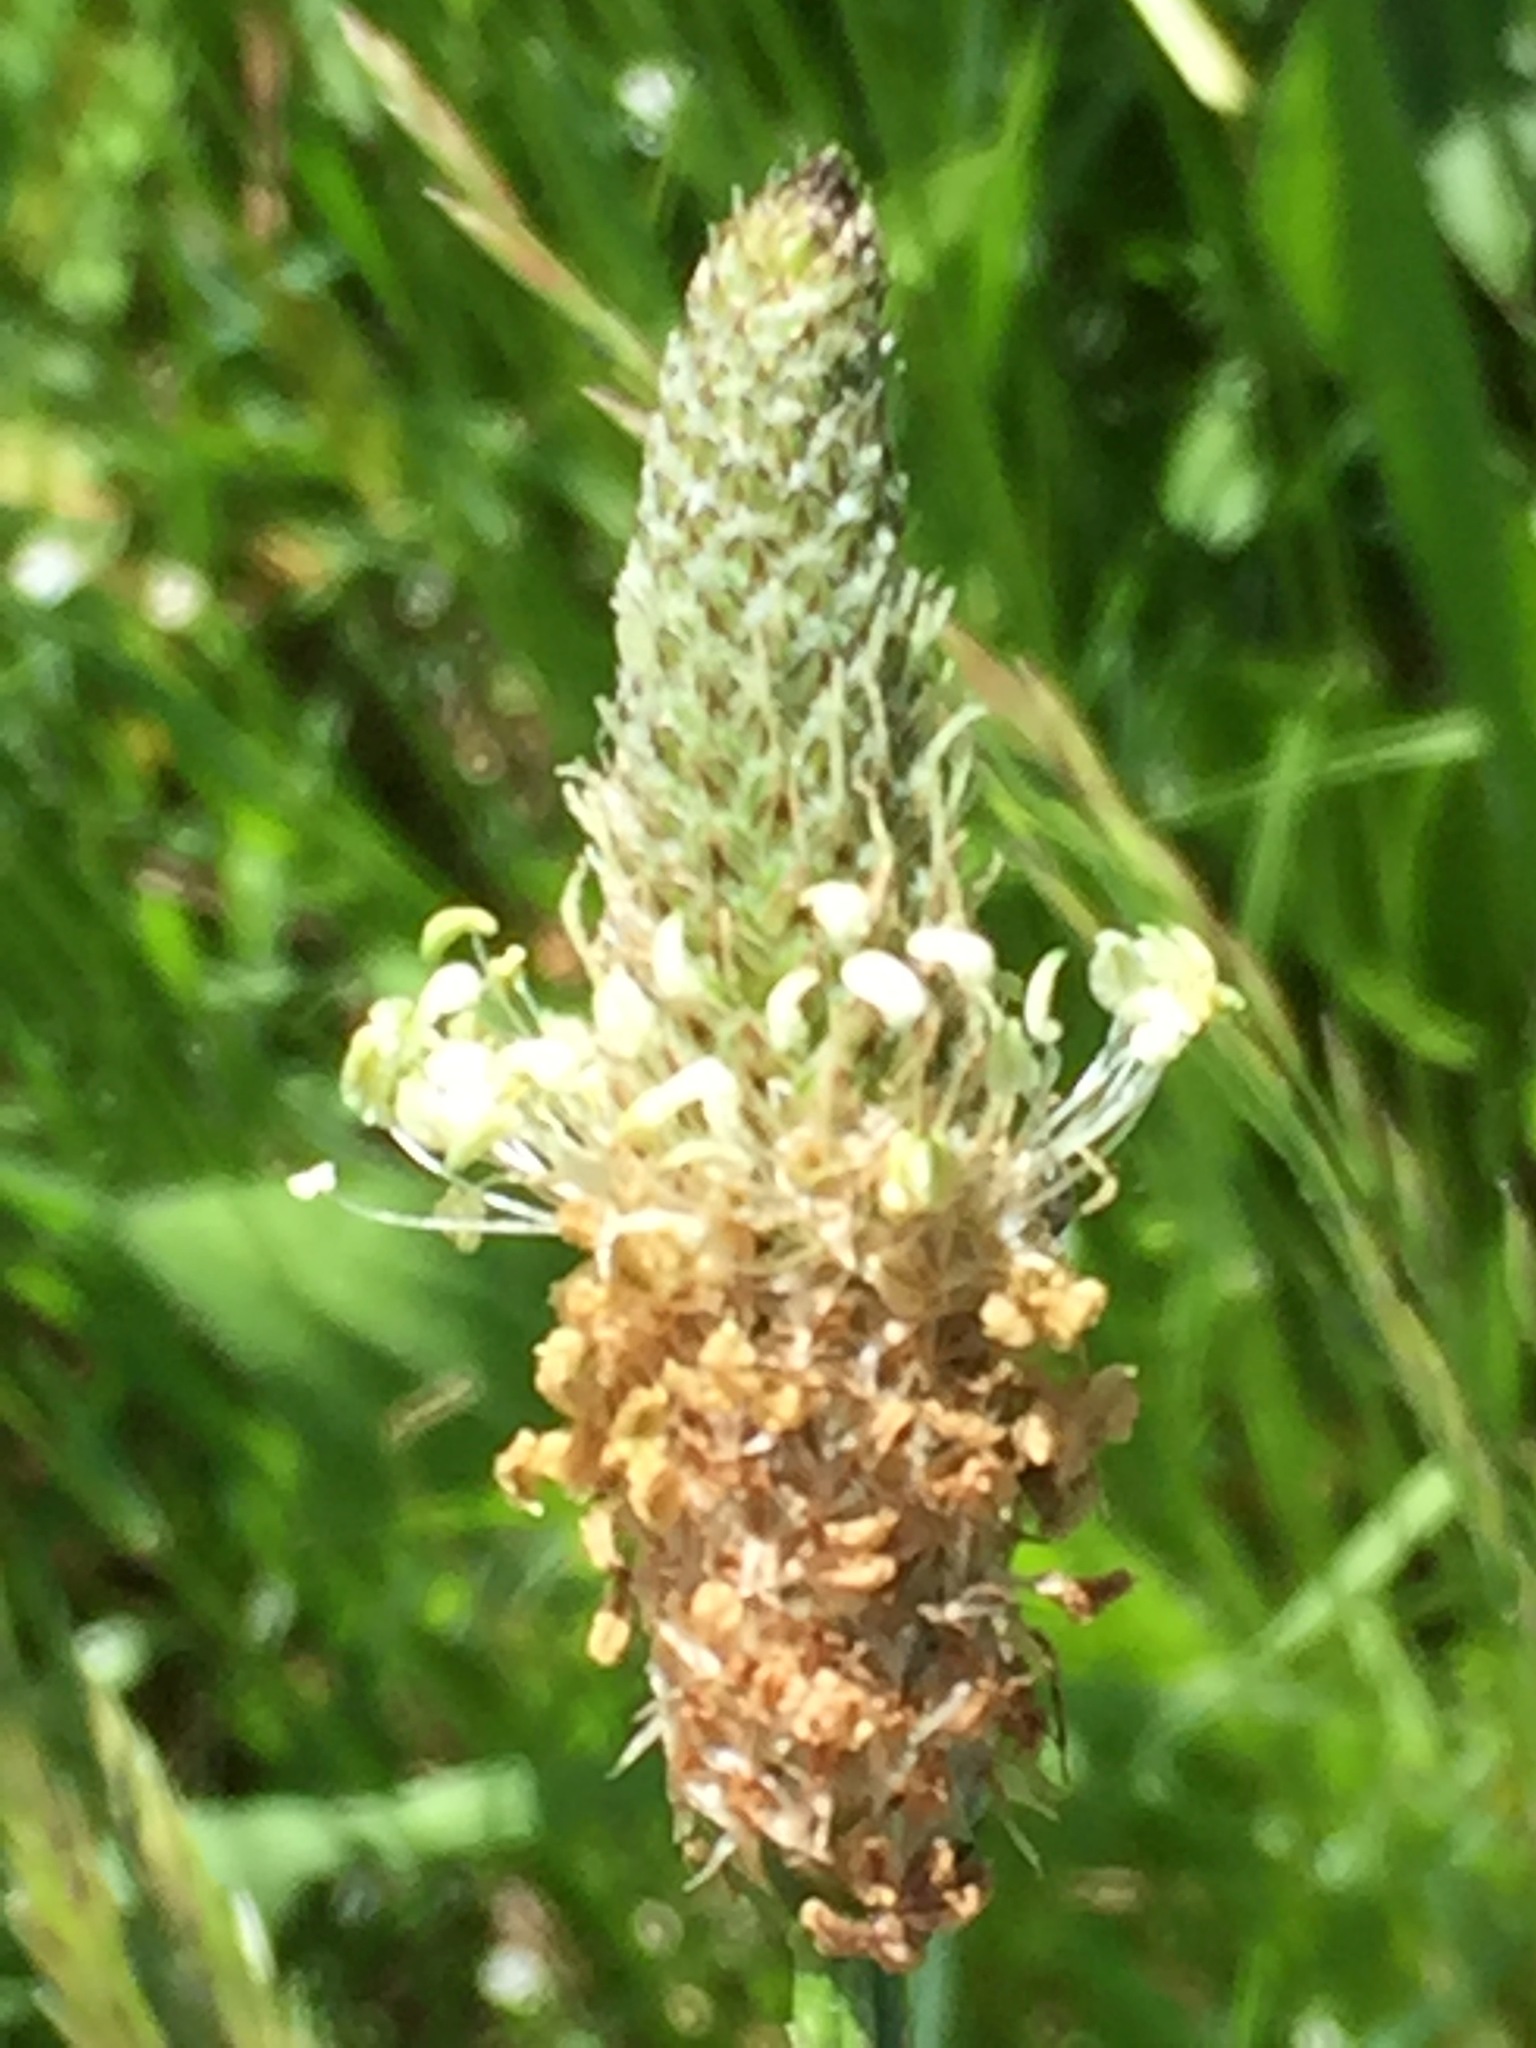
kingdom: Plantae
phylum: Tracheophyta
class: Magnoliopsida
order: Lamiales
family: Plantaginaceae
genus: Plantago
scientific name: Plantago lanceolata
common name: Ribwort plantain
